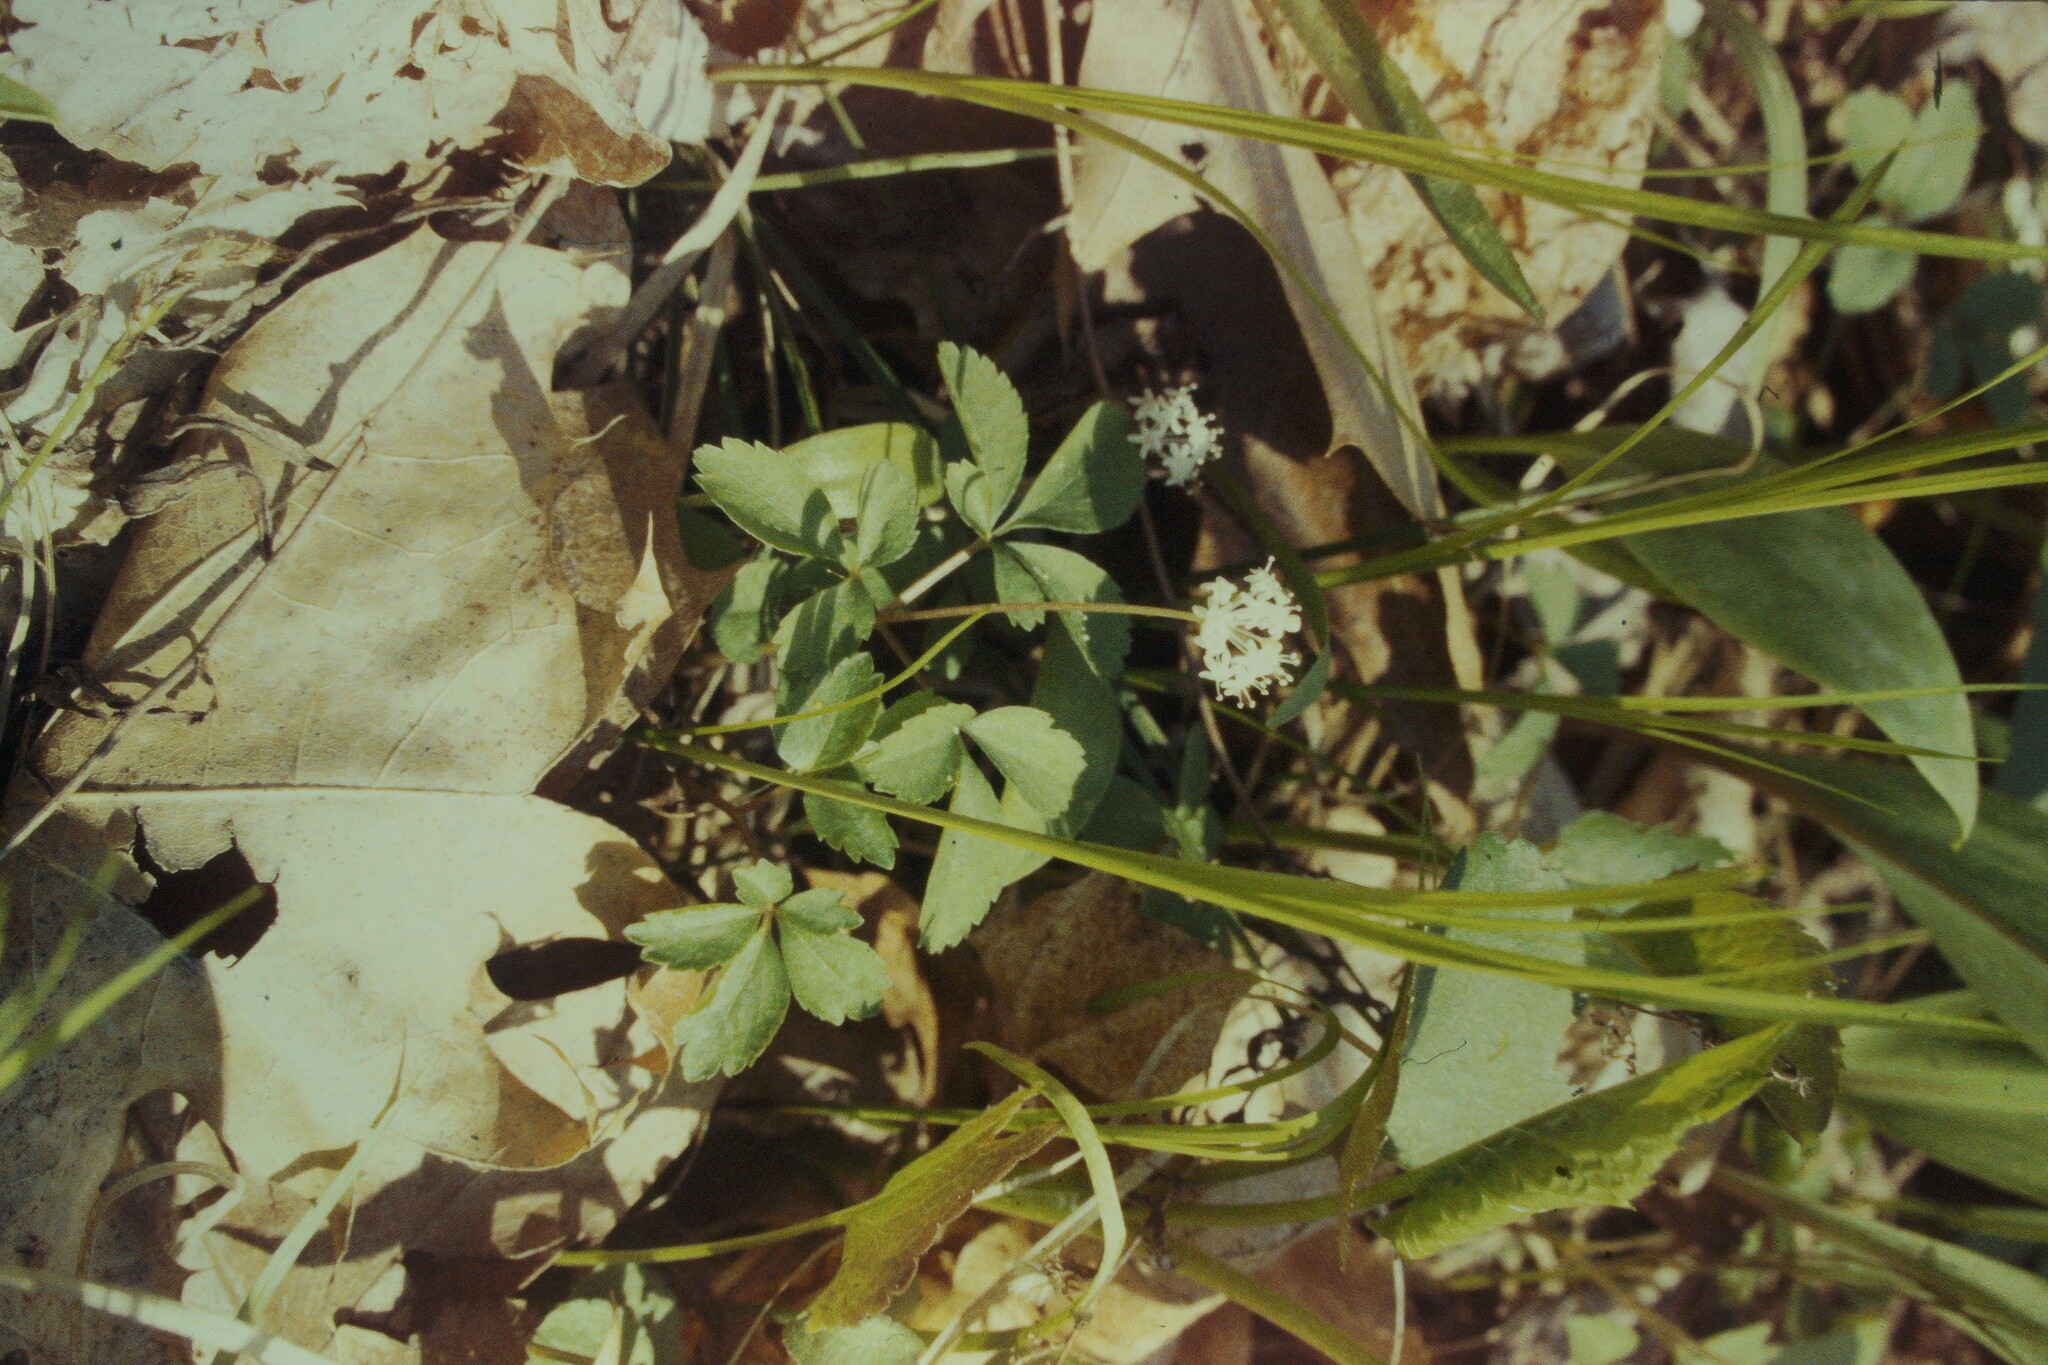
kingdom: Plantae
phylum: Tracheophyta
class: Magnoliopsida
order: Apiales
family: Araliaceae
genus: Panax
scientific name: Panax trifolius
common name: Dwarf ginseng
